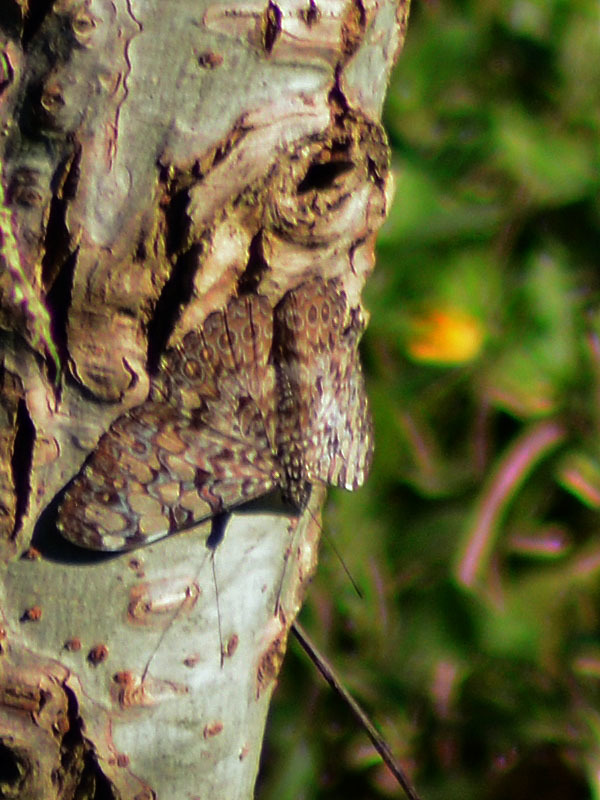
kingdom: Animalia
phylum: Arthropoda
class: Insecta
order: Lepidoptera
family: Nymphalidae
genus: Hamadryas
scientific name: Hamadryas feronia
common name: Variable cracker
